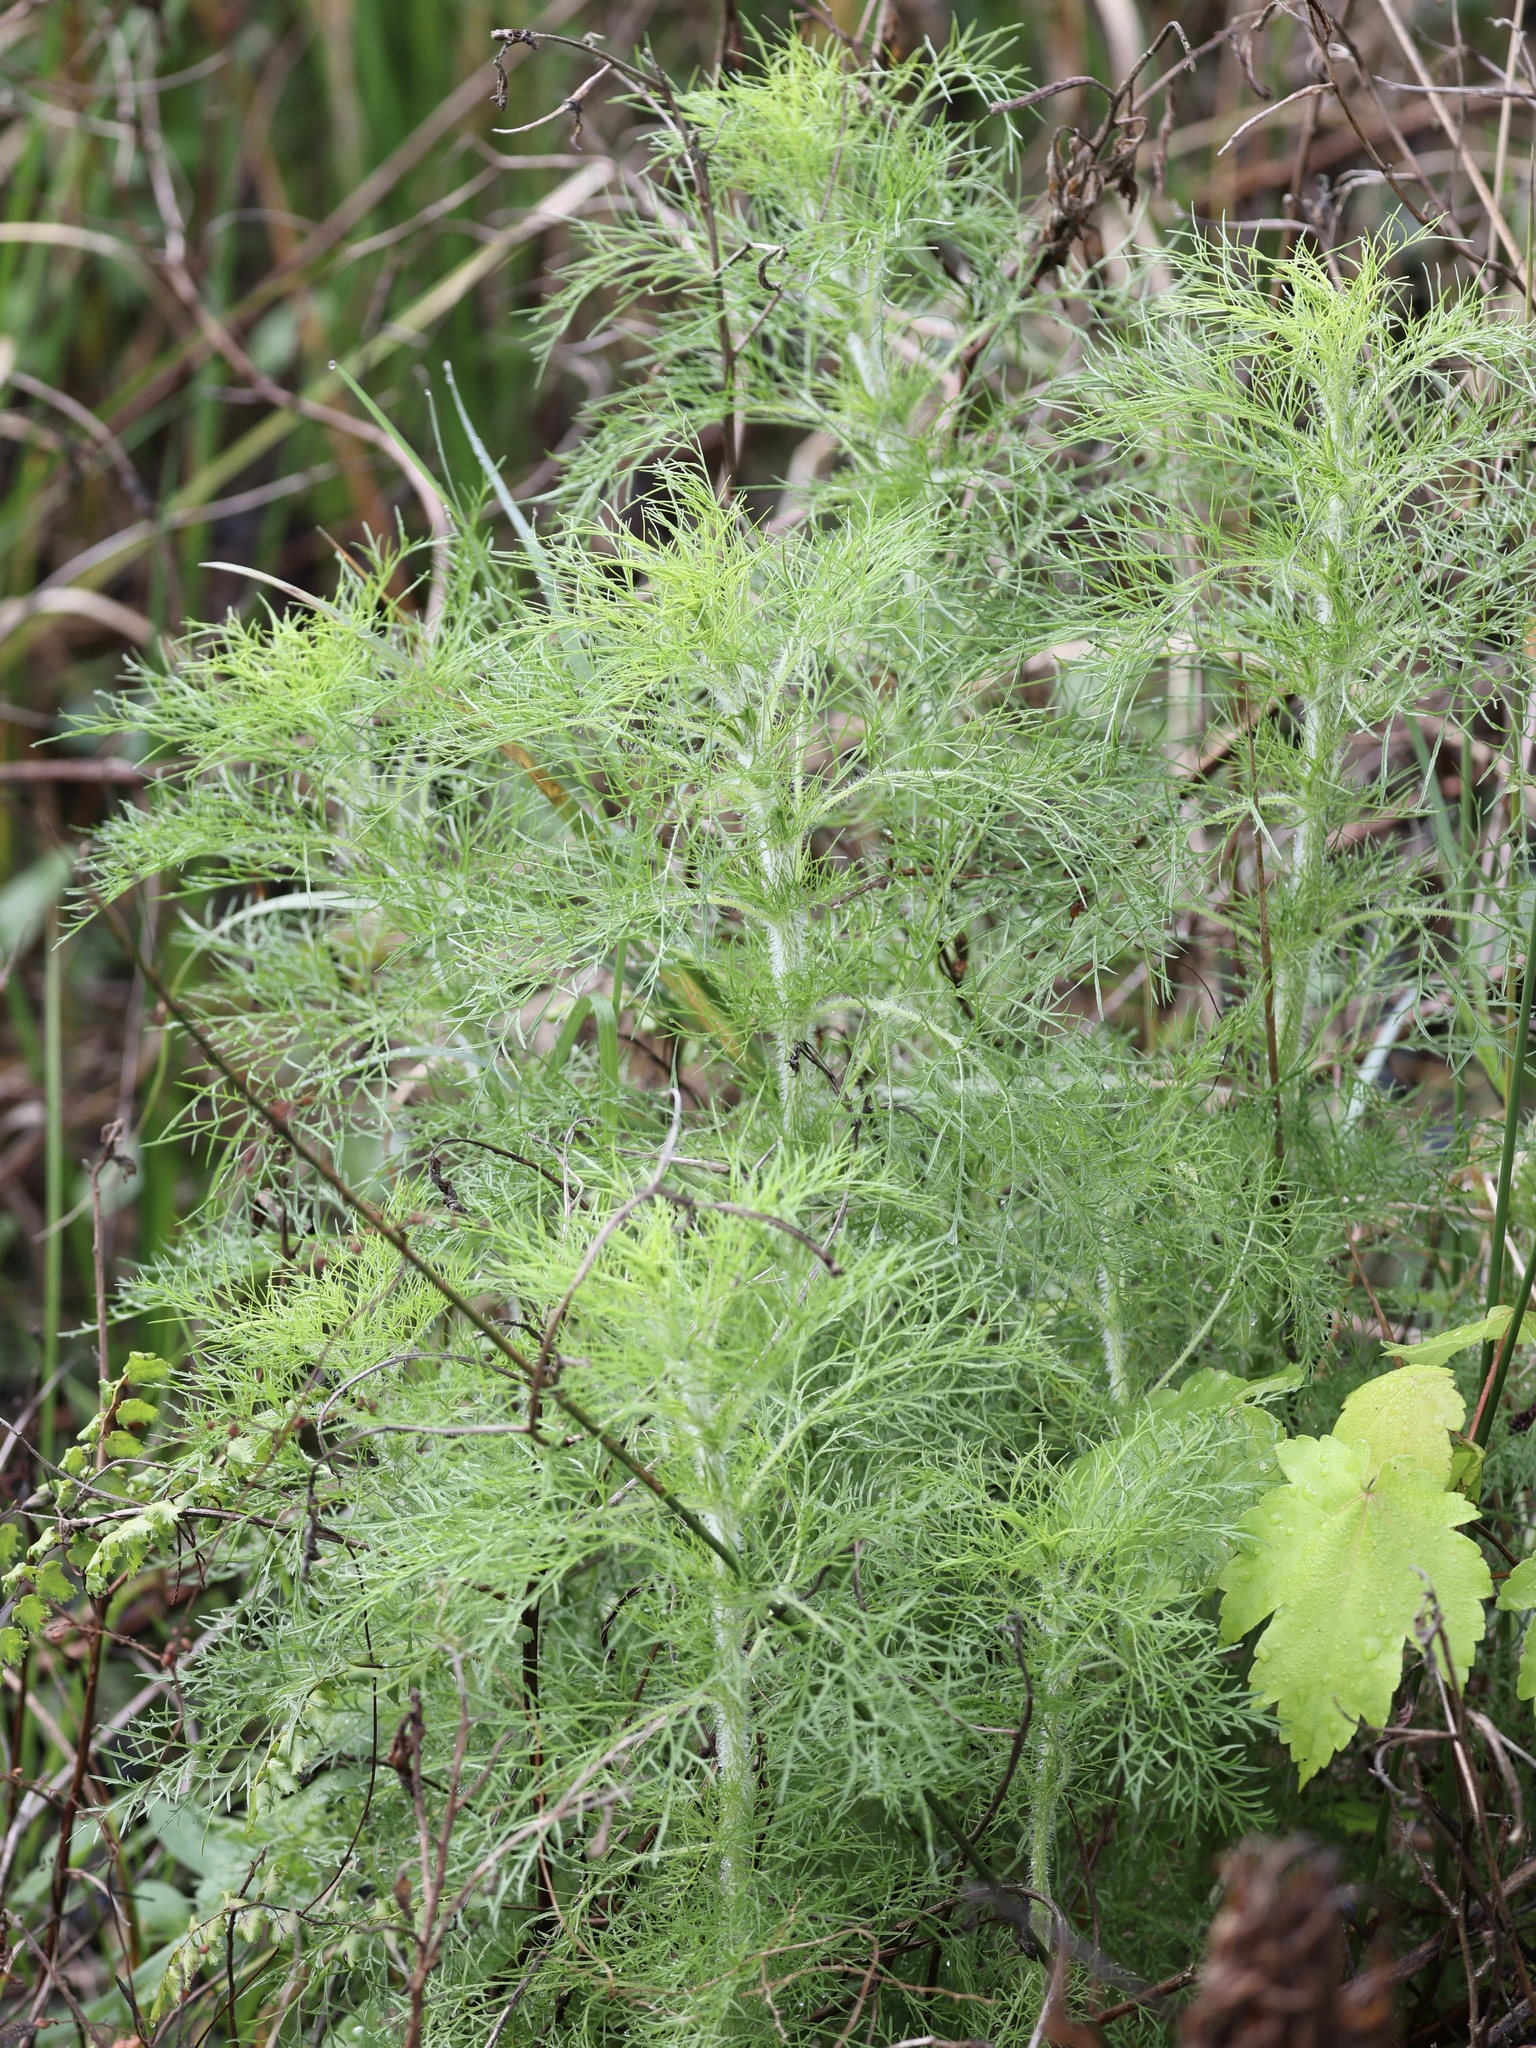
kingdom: Plantae
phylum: Tracheophyta
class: Magnoliopsida
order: Asterales
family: Asteraceae
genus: Eupatorium
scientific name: Eupatorium capillifolium
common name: Dog-fennel
